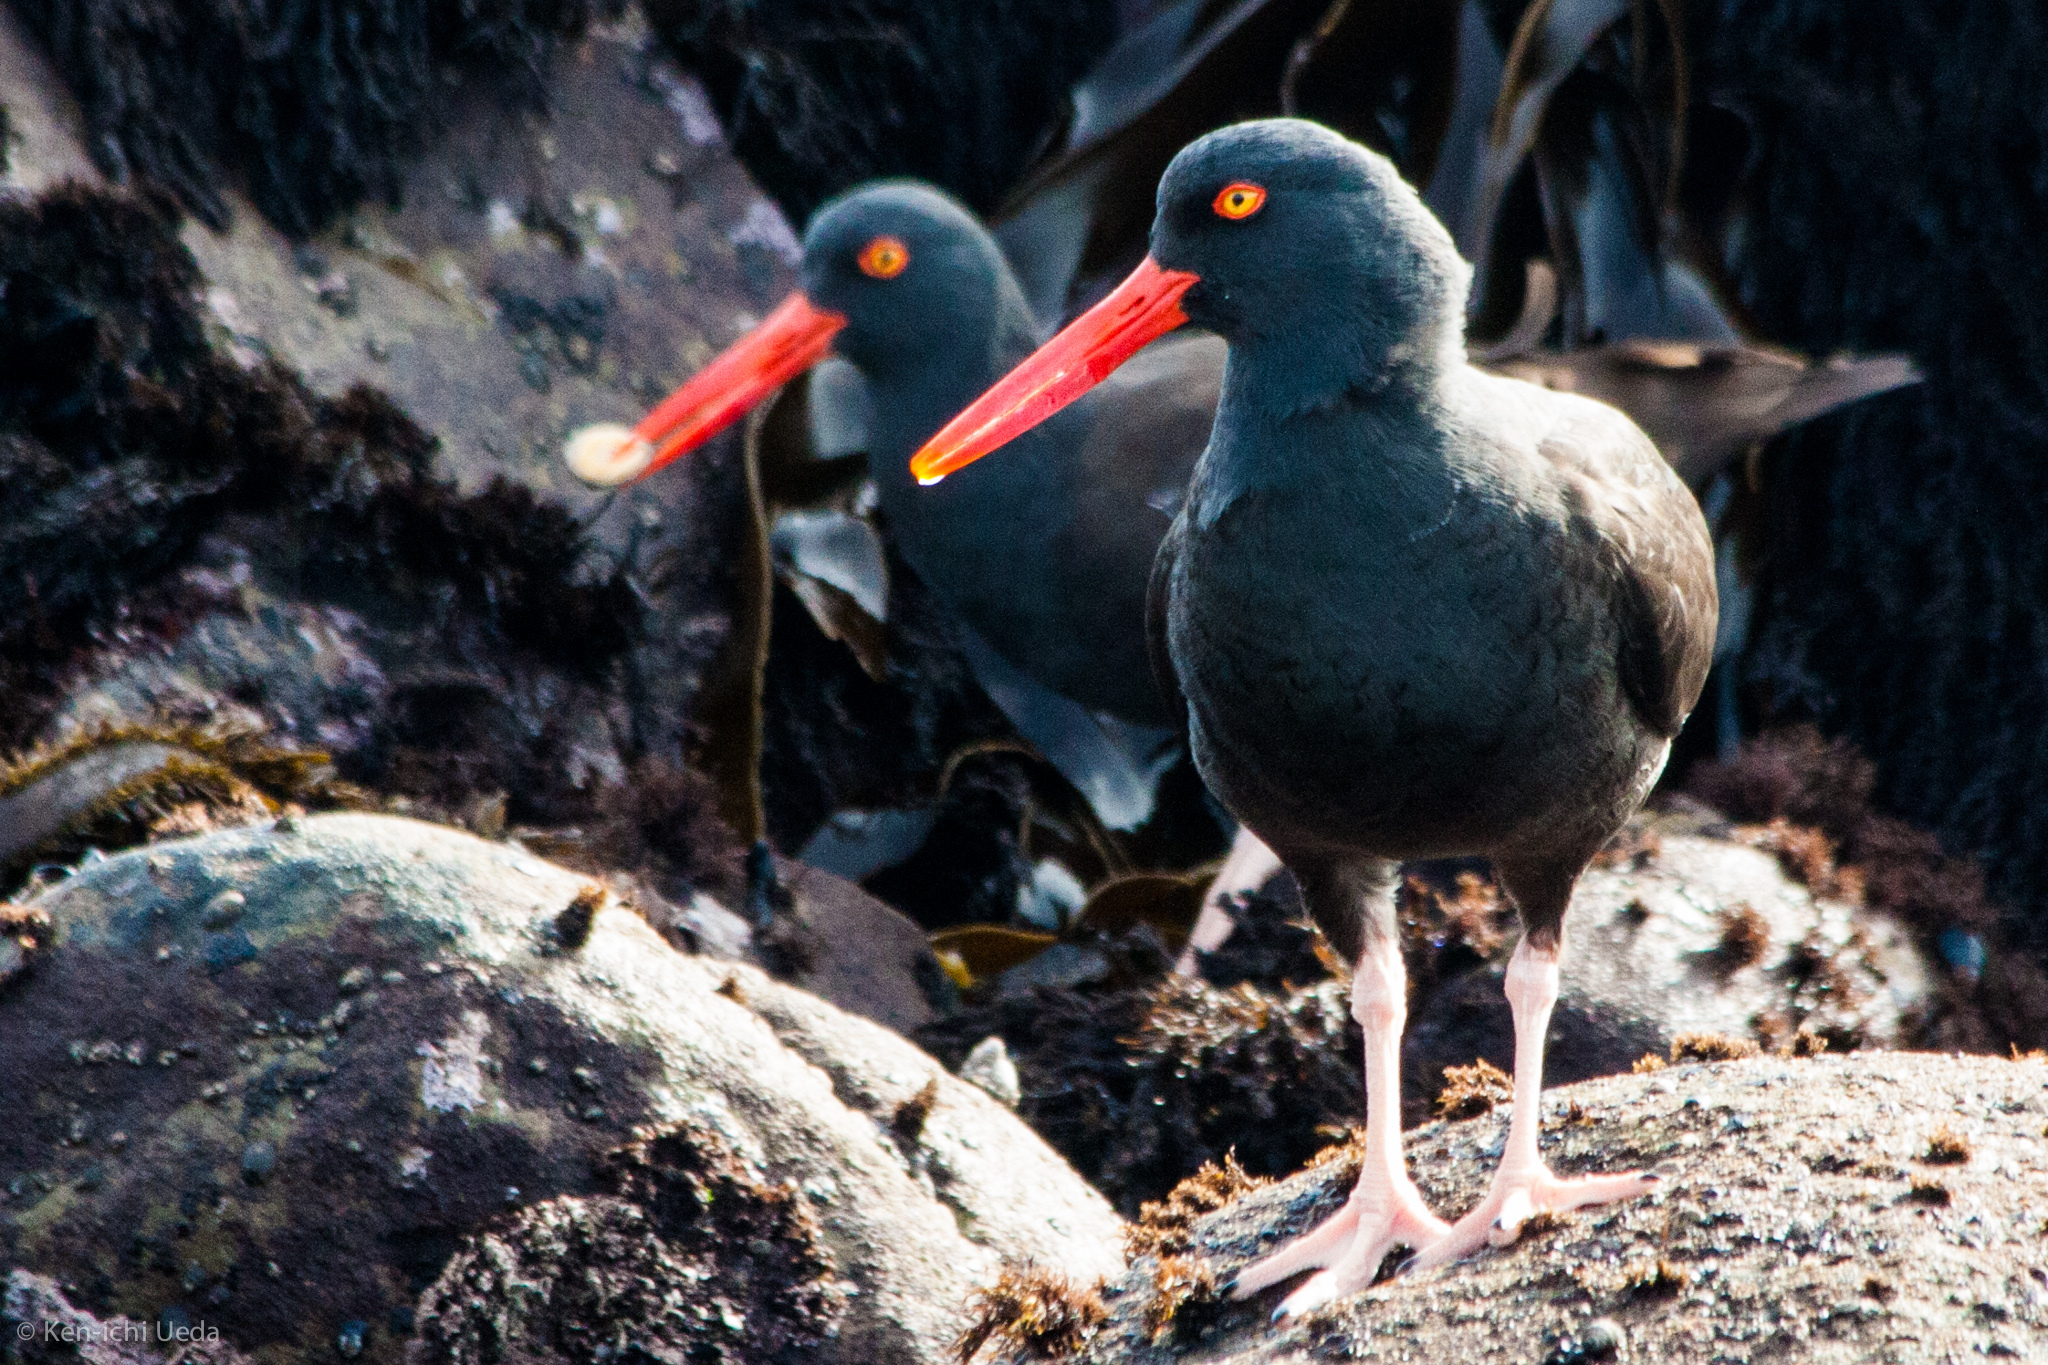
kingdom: Animalia
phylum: Chordata
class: Aves
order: Charadriiformes
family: Haematopodidae
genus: Haematopus
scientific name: Haematopus bachmani
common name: Black oystercatcher
